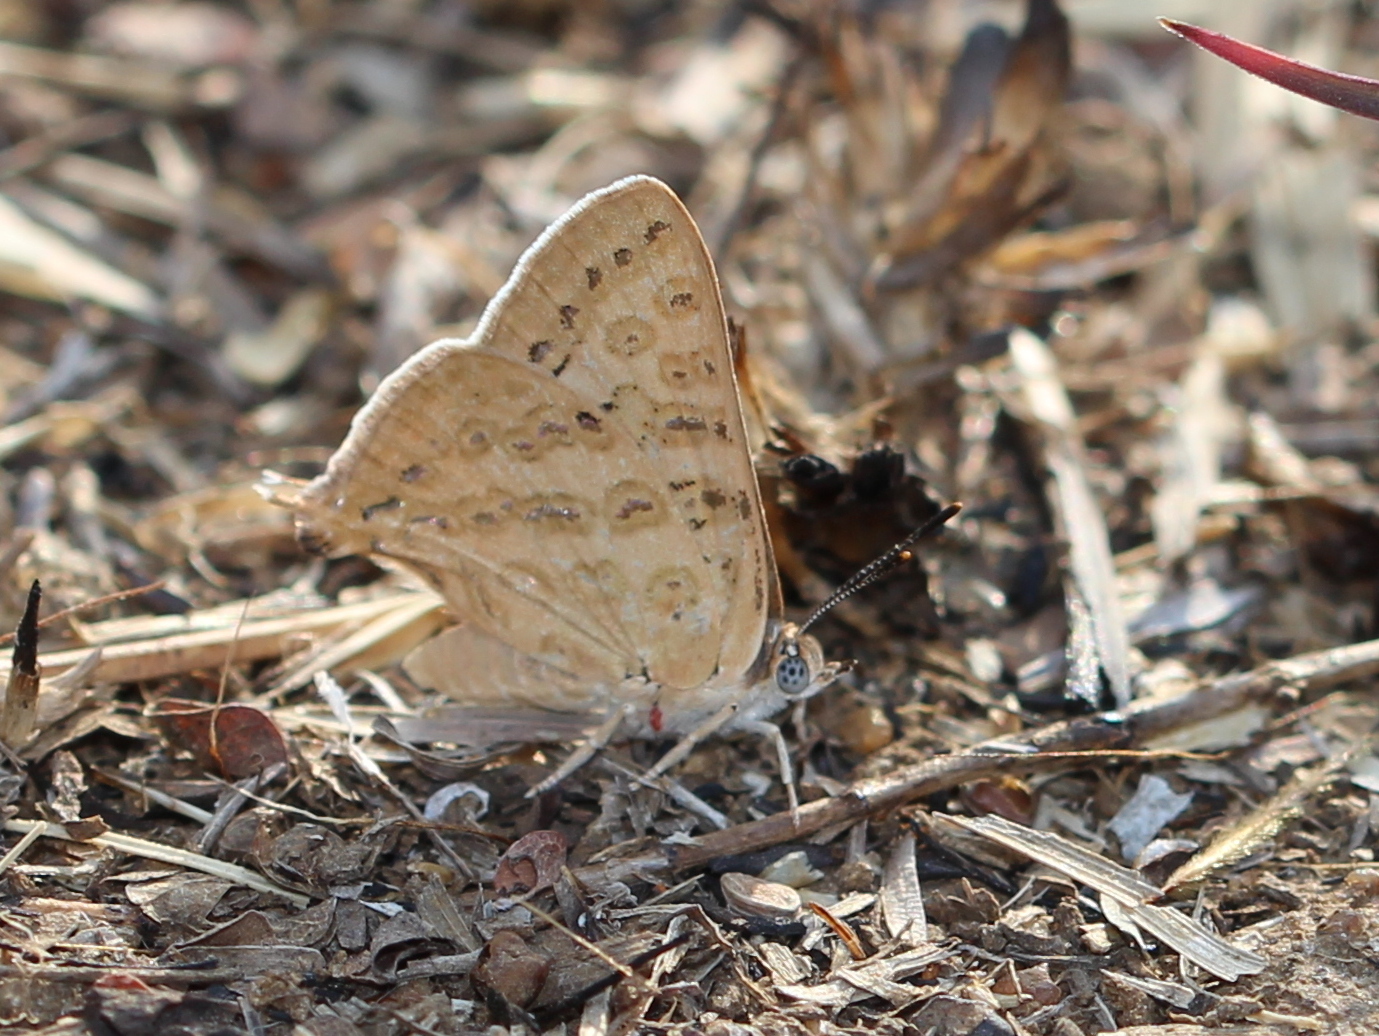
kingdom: Animalia
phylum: Arthropoda
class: Insecta
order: Lepidoptera
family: Lycaenidae
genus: Aphnaeus
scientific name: Aphnaeus lilacinus
